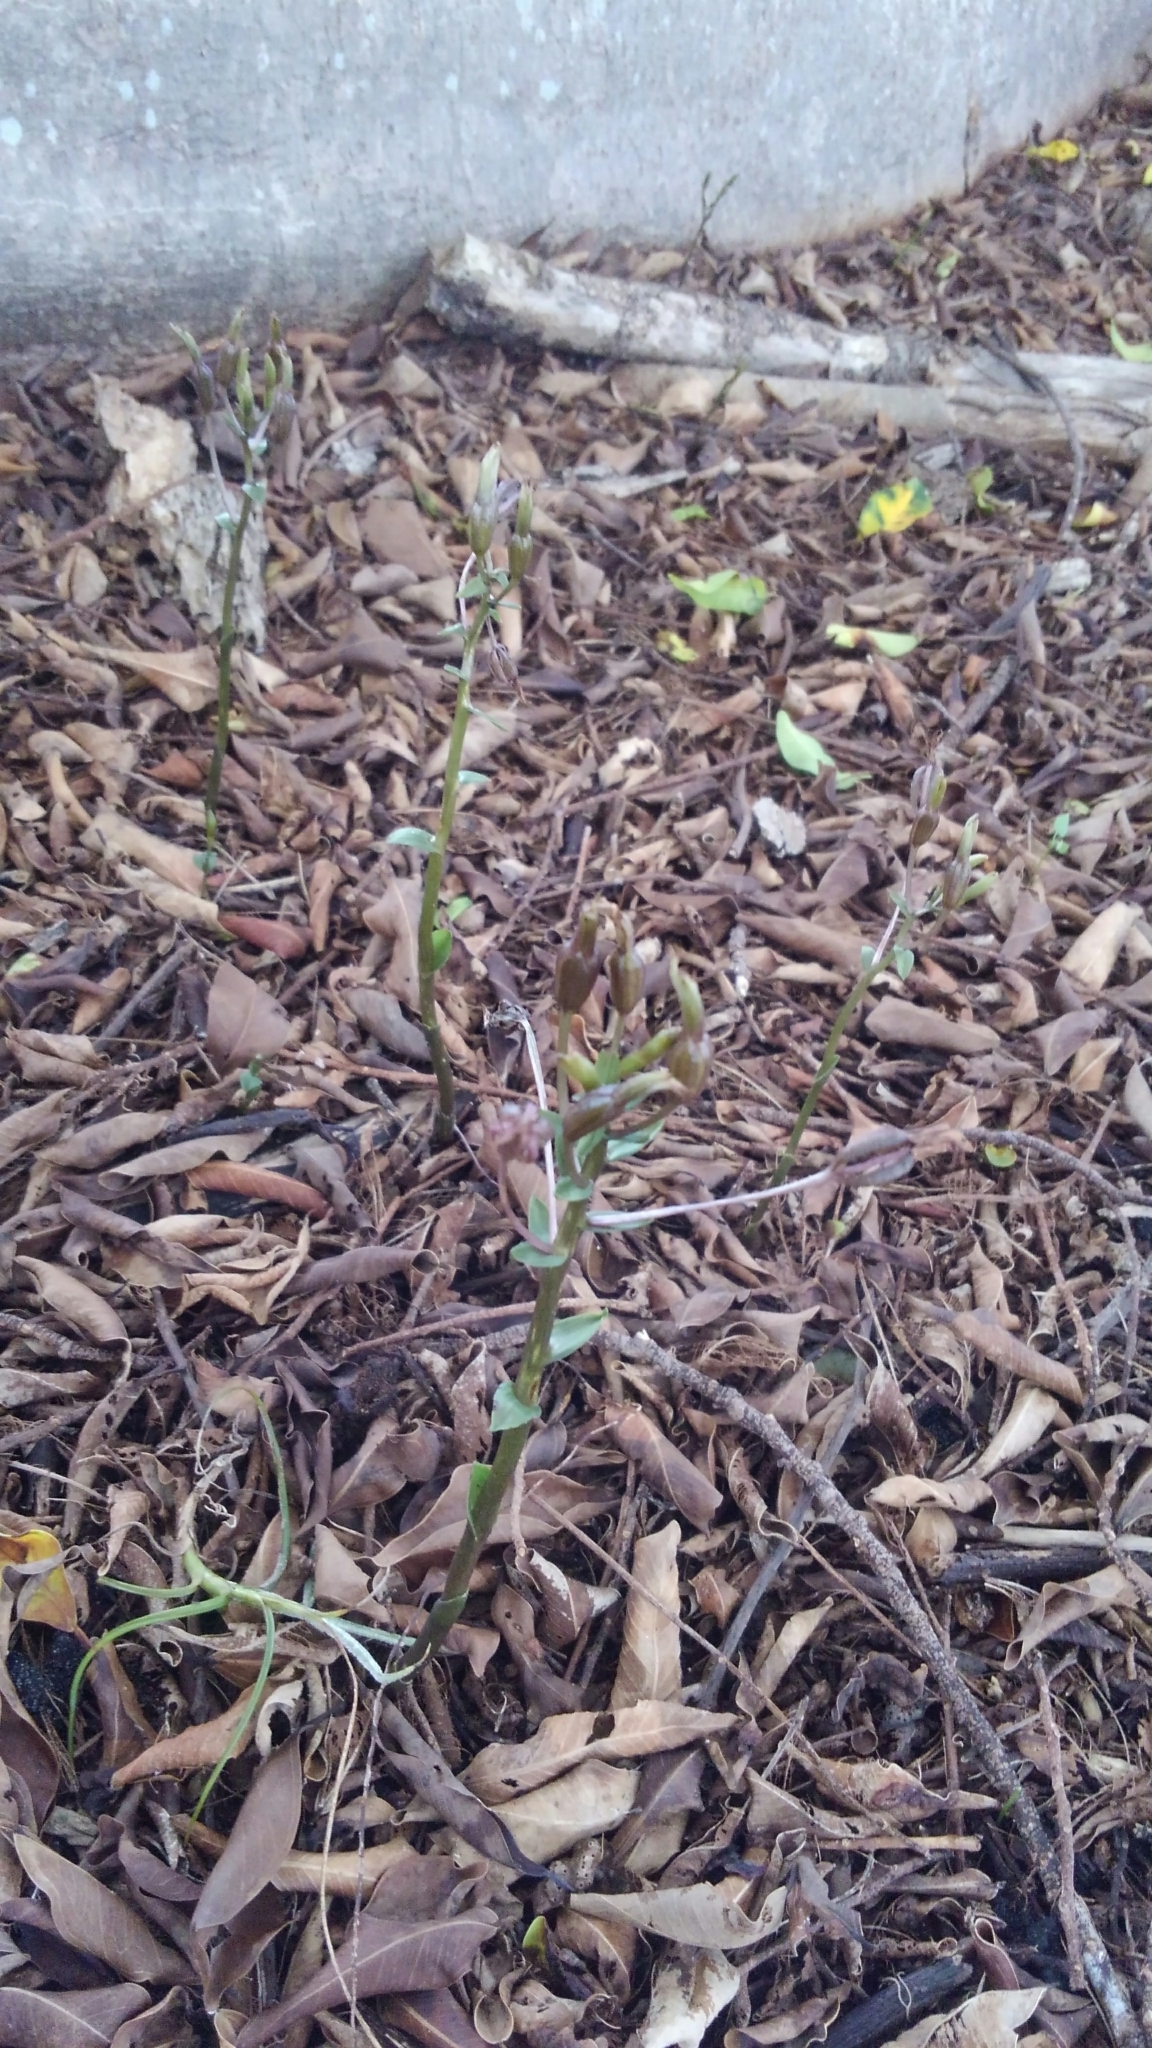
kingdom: Plantae
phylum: Tracheophyta
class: Liliopsida
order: Asparagales
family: Orchidaceae
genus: Triphora
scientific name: Triphora gentianoides
